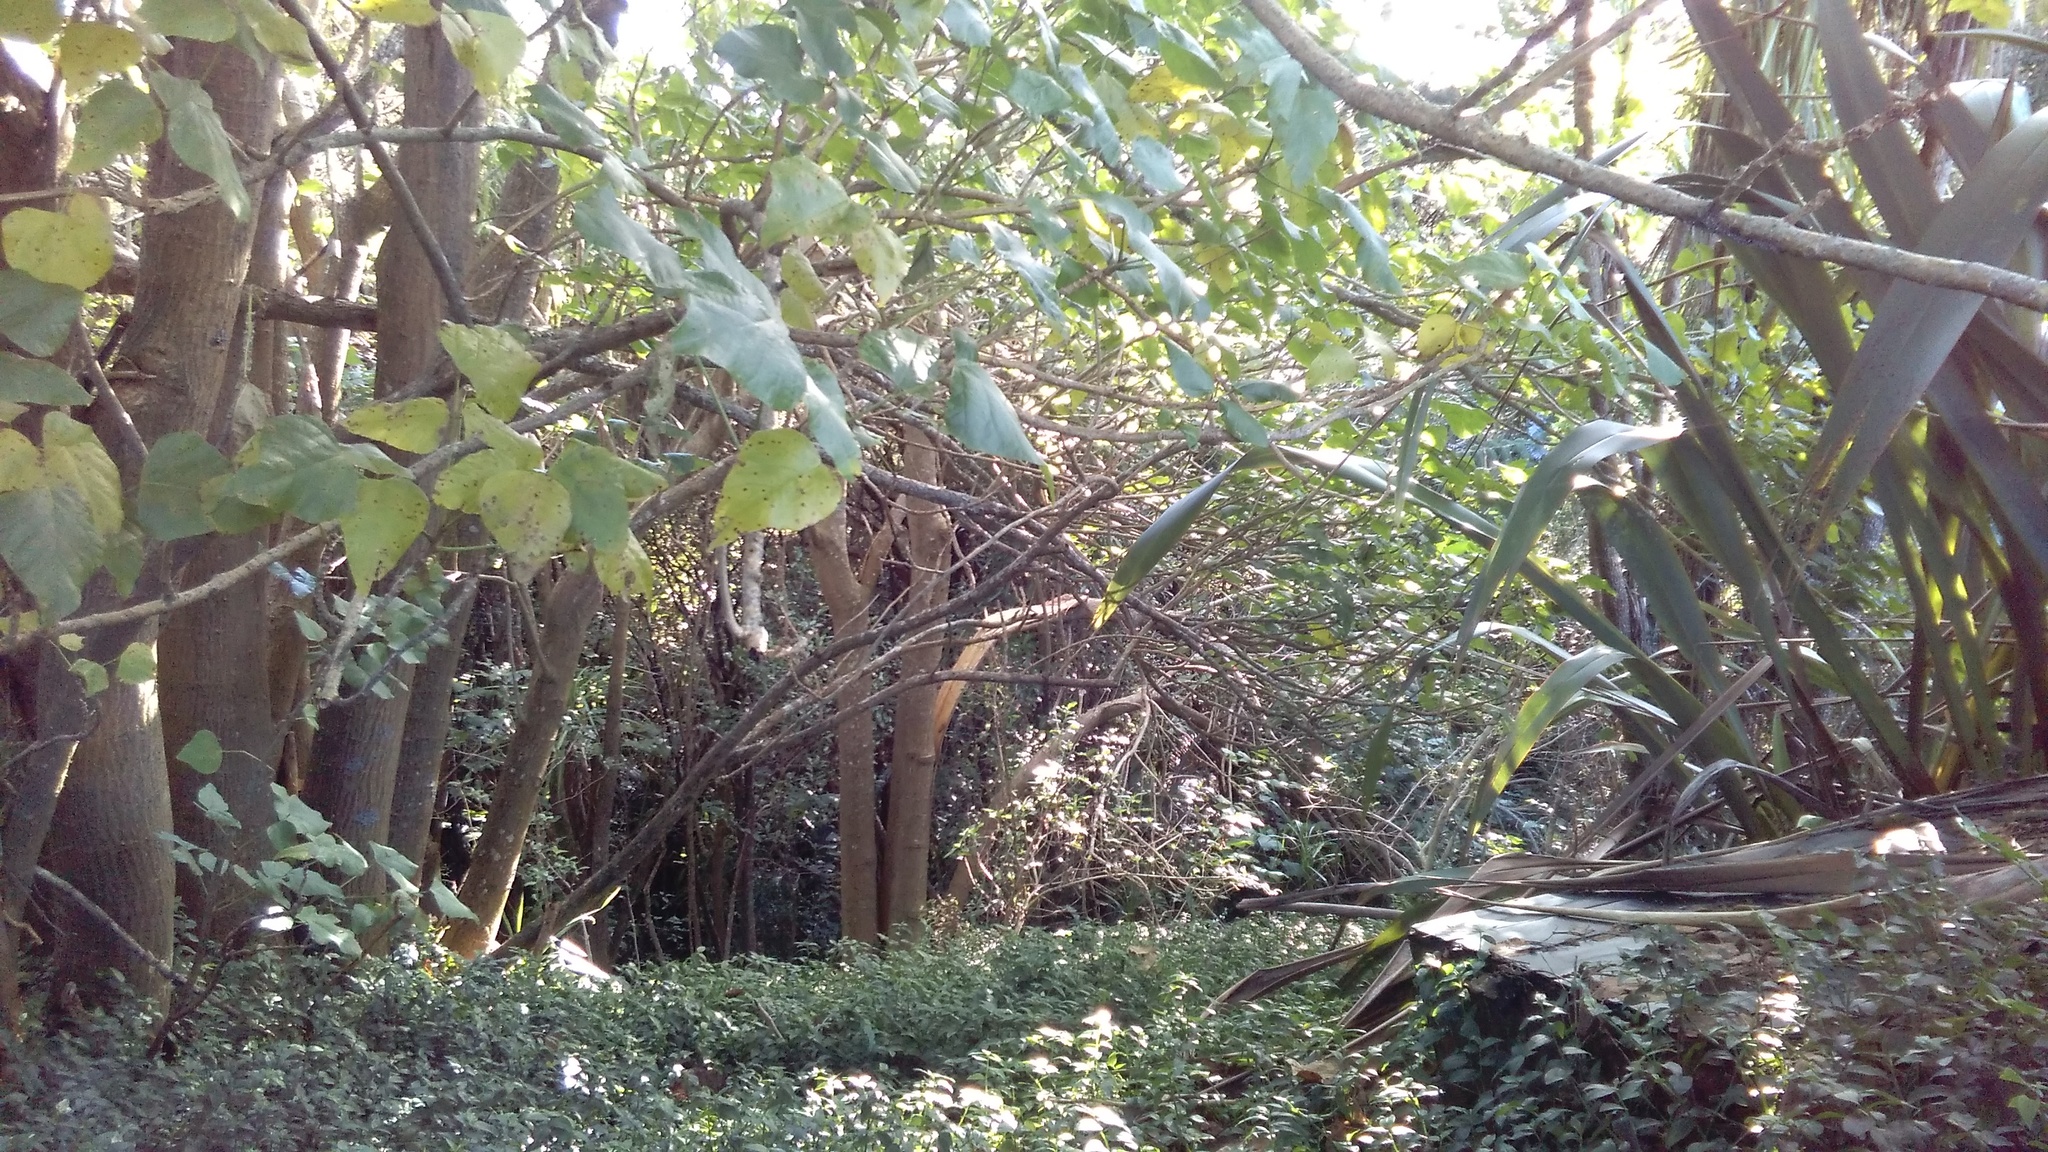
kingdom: Plantae
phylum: Tracheophyta
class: Magnoliopsida
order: Fabales
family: Fabaceae
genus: Erythrina
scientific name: Erythrina sykesii
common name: Coraltree
